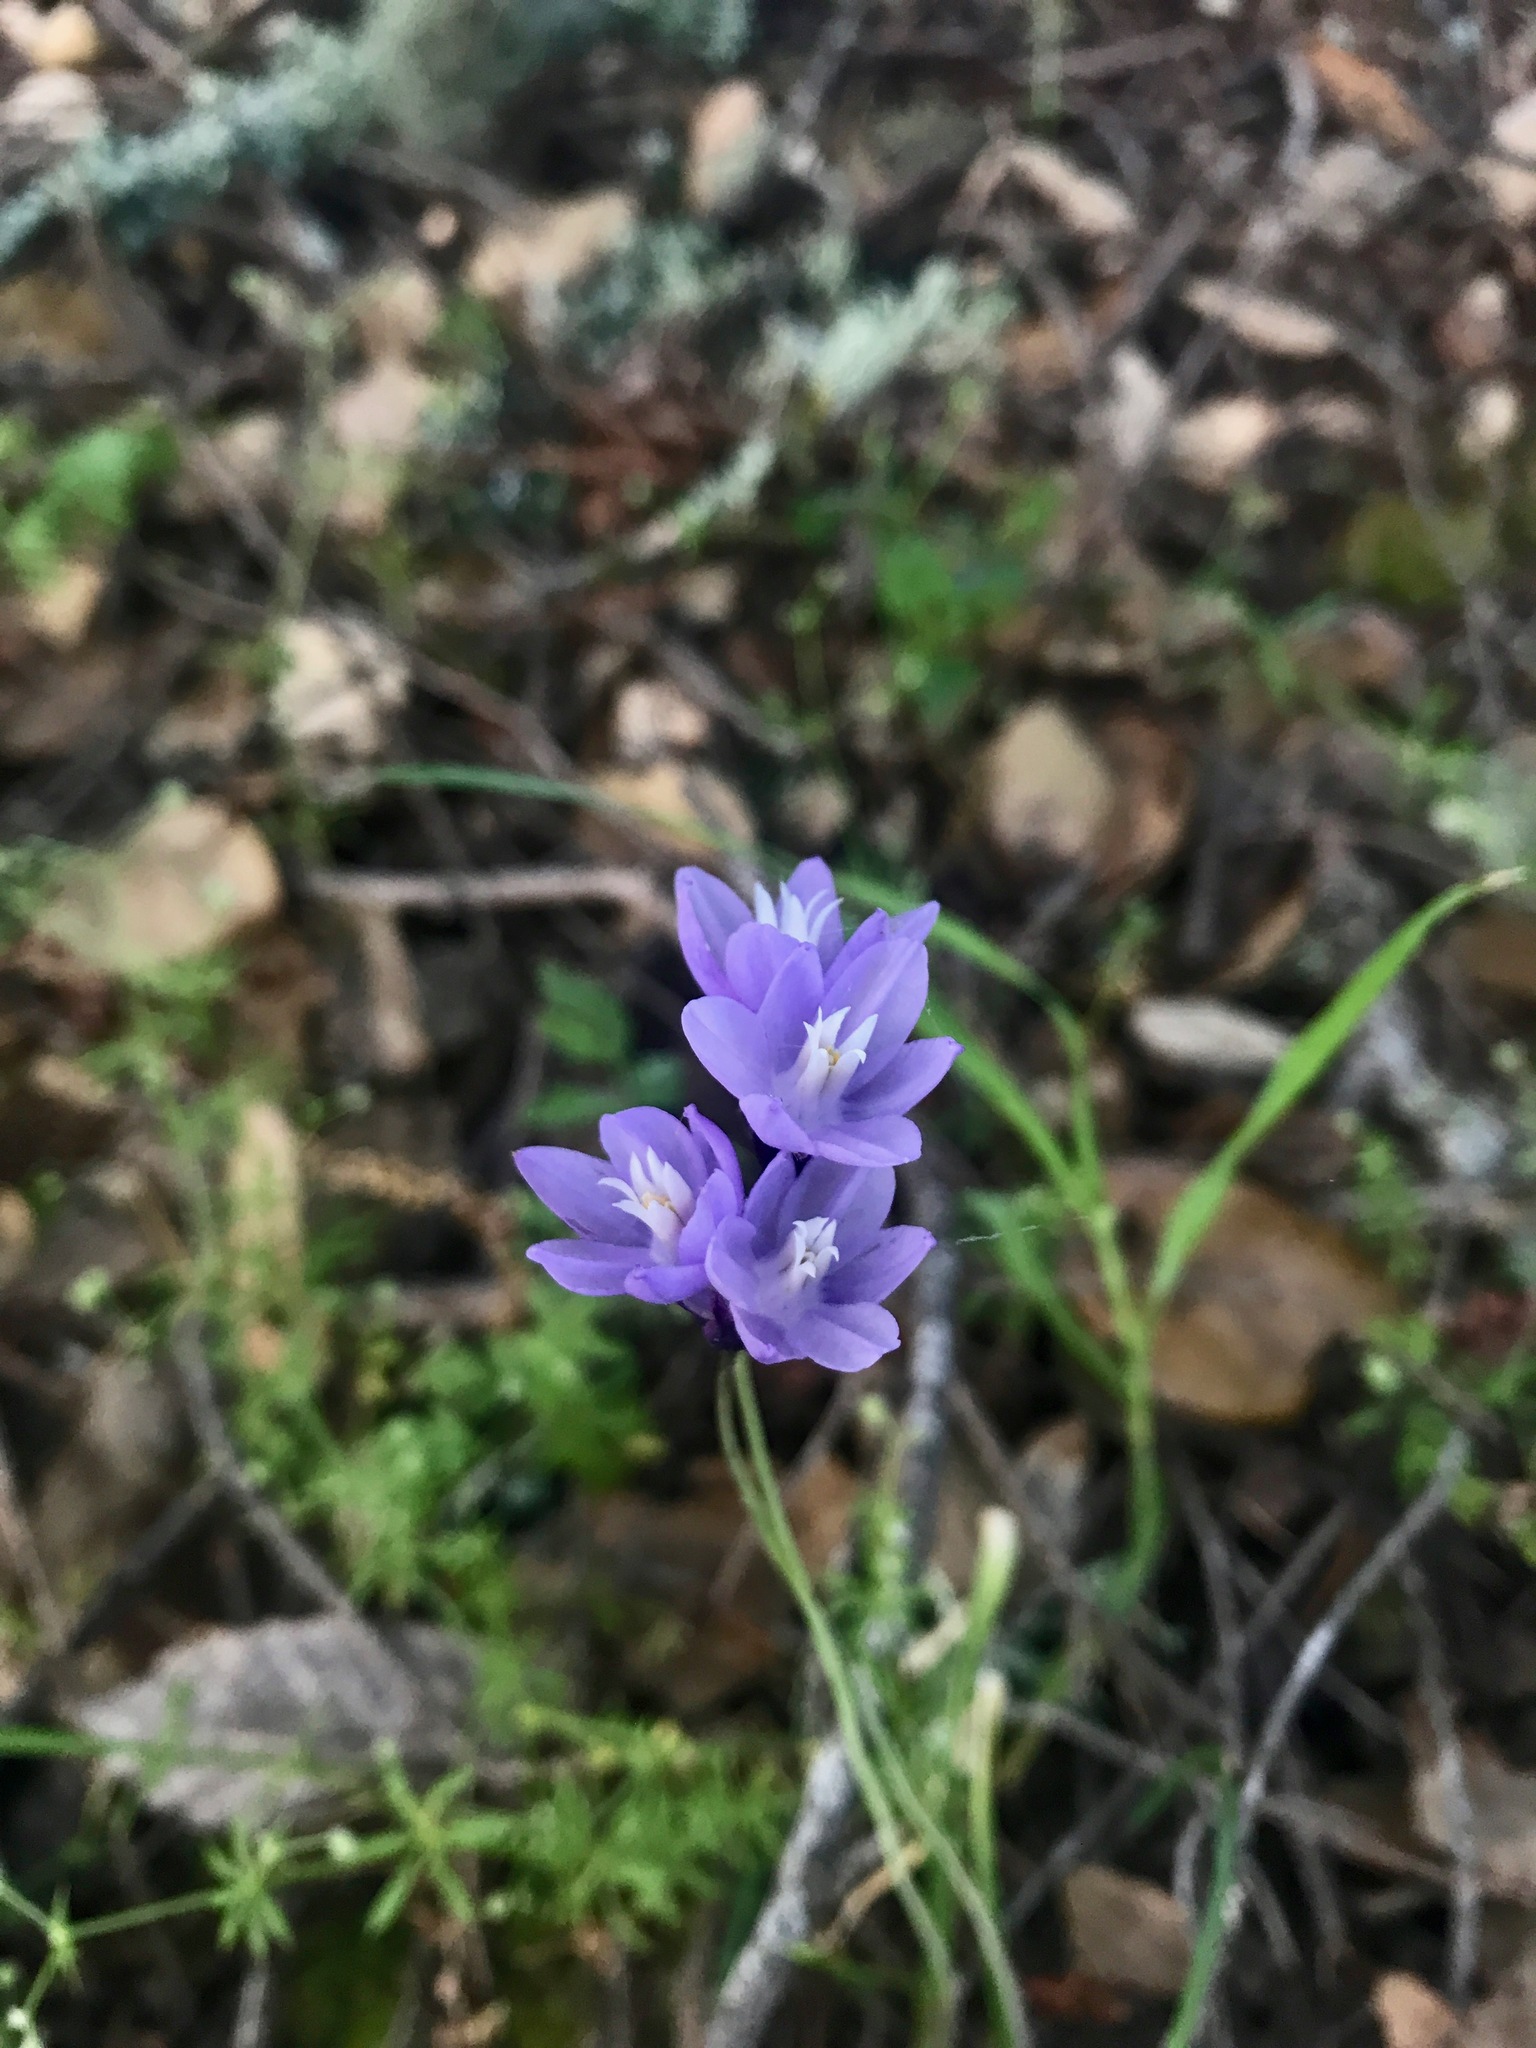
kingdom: Plantae
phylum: Tracheophyta
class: Liliopsida
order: Asparagales
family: Asparagaceae
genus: Dipterostemon
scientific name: Dipterostemon capitatus
